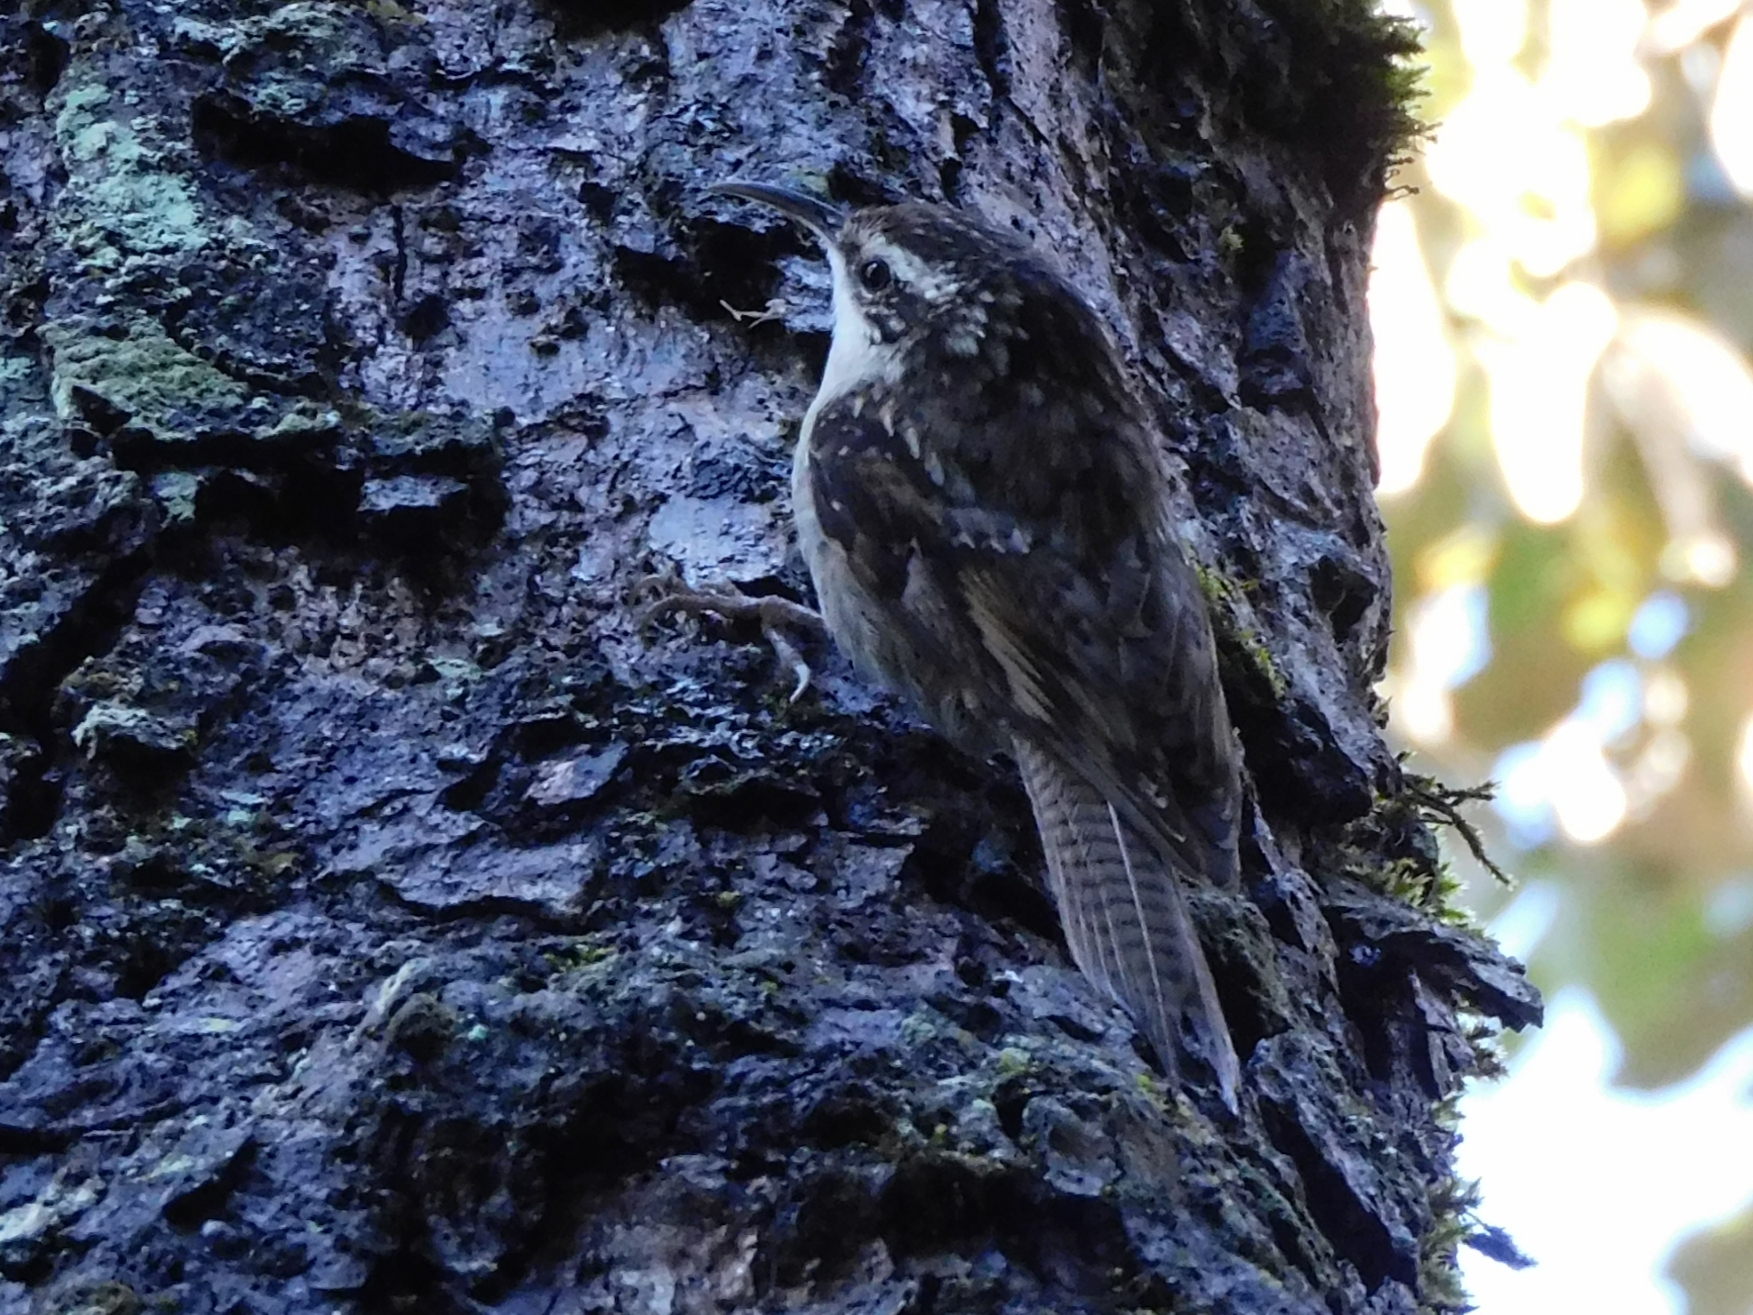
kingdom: Animalia
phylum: Chordata
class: Aves
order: Passeriformes
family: Certhiidae
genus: Certhia
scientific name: Certhia himalayana
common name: Bar-tailed treecreeper
